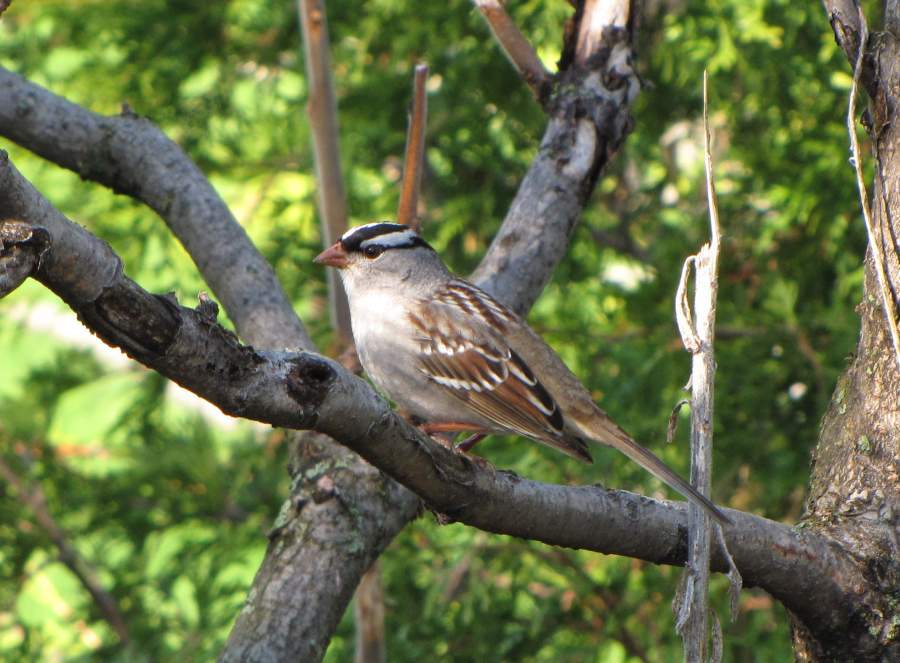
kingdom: Animalia
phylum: Chordata
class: Aves
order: Passeriformes
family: Passerellidae
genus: Zonotrichia
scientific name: Zonotrichia leucophrys
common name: White-crowned sparrow
